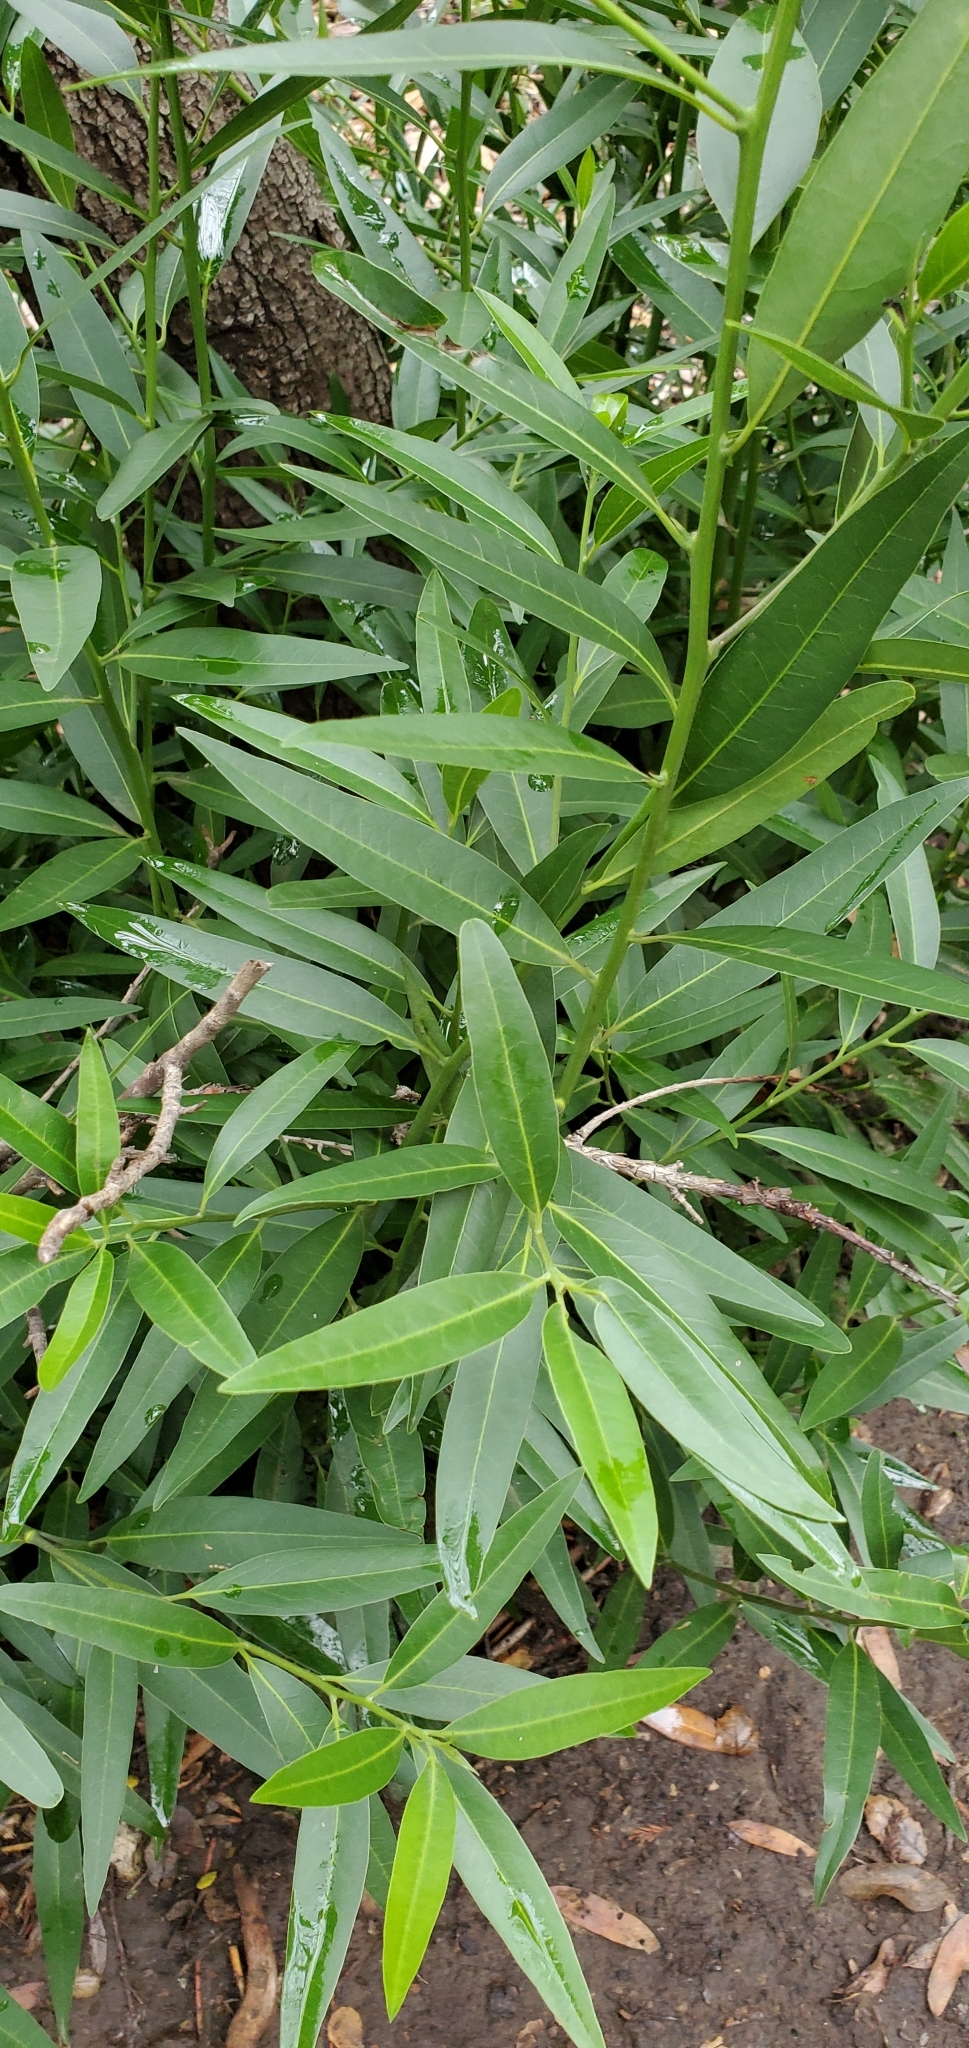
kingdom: Plantae
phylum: Tracheophyta
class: Magnoliopsida
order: Laurales
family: Lauraceae
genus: Umbellularia
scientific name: Umbellularia californica
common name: California bay
